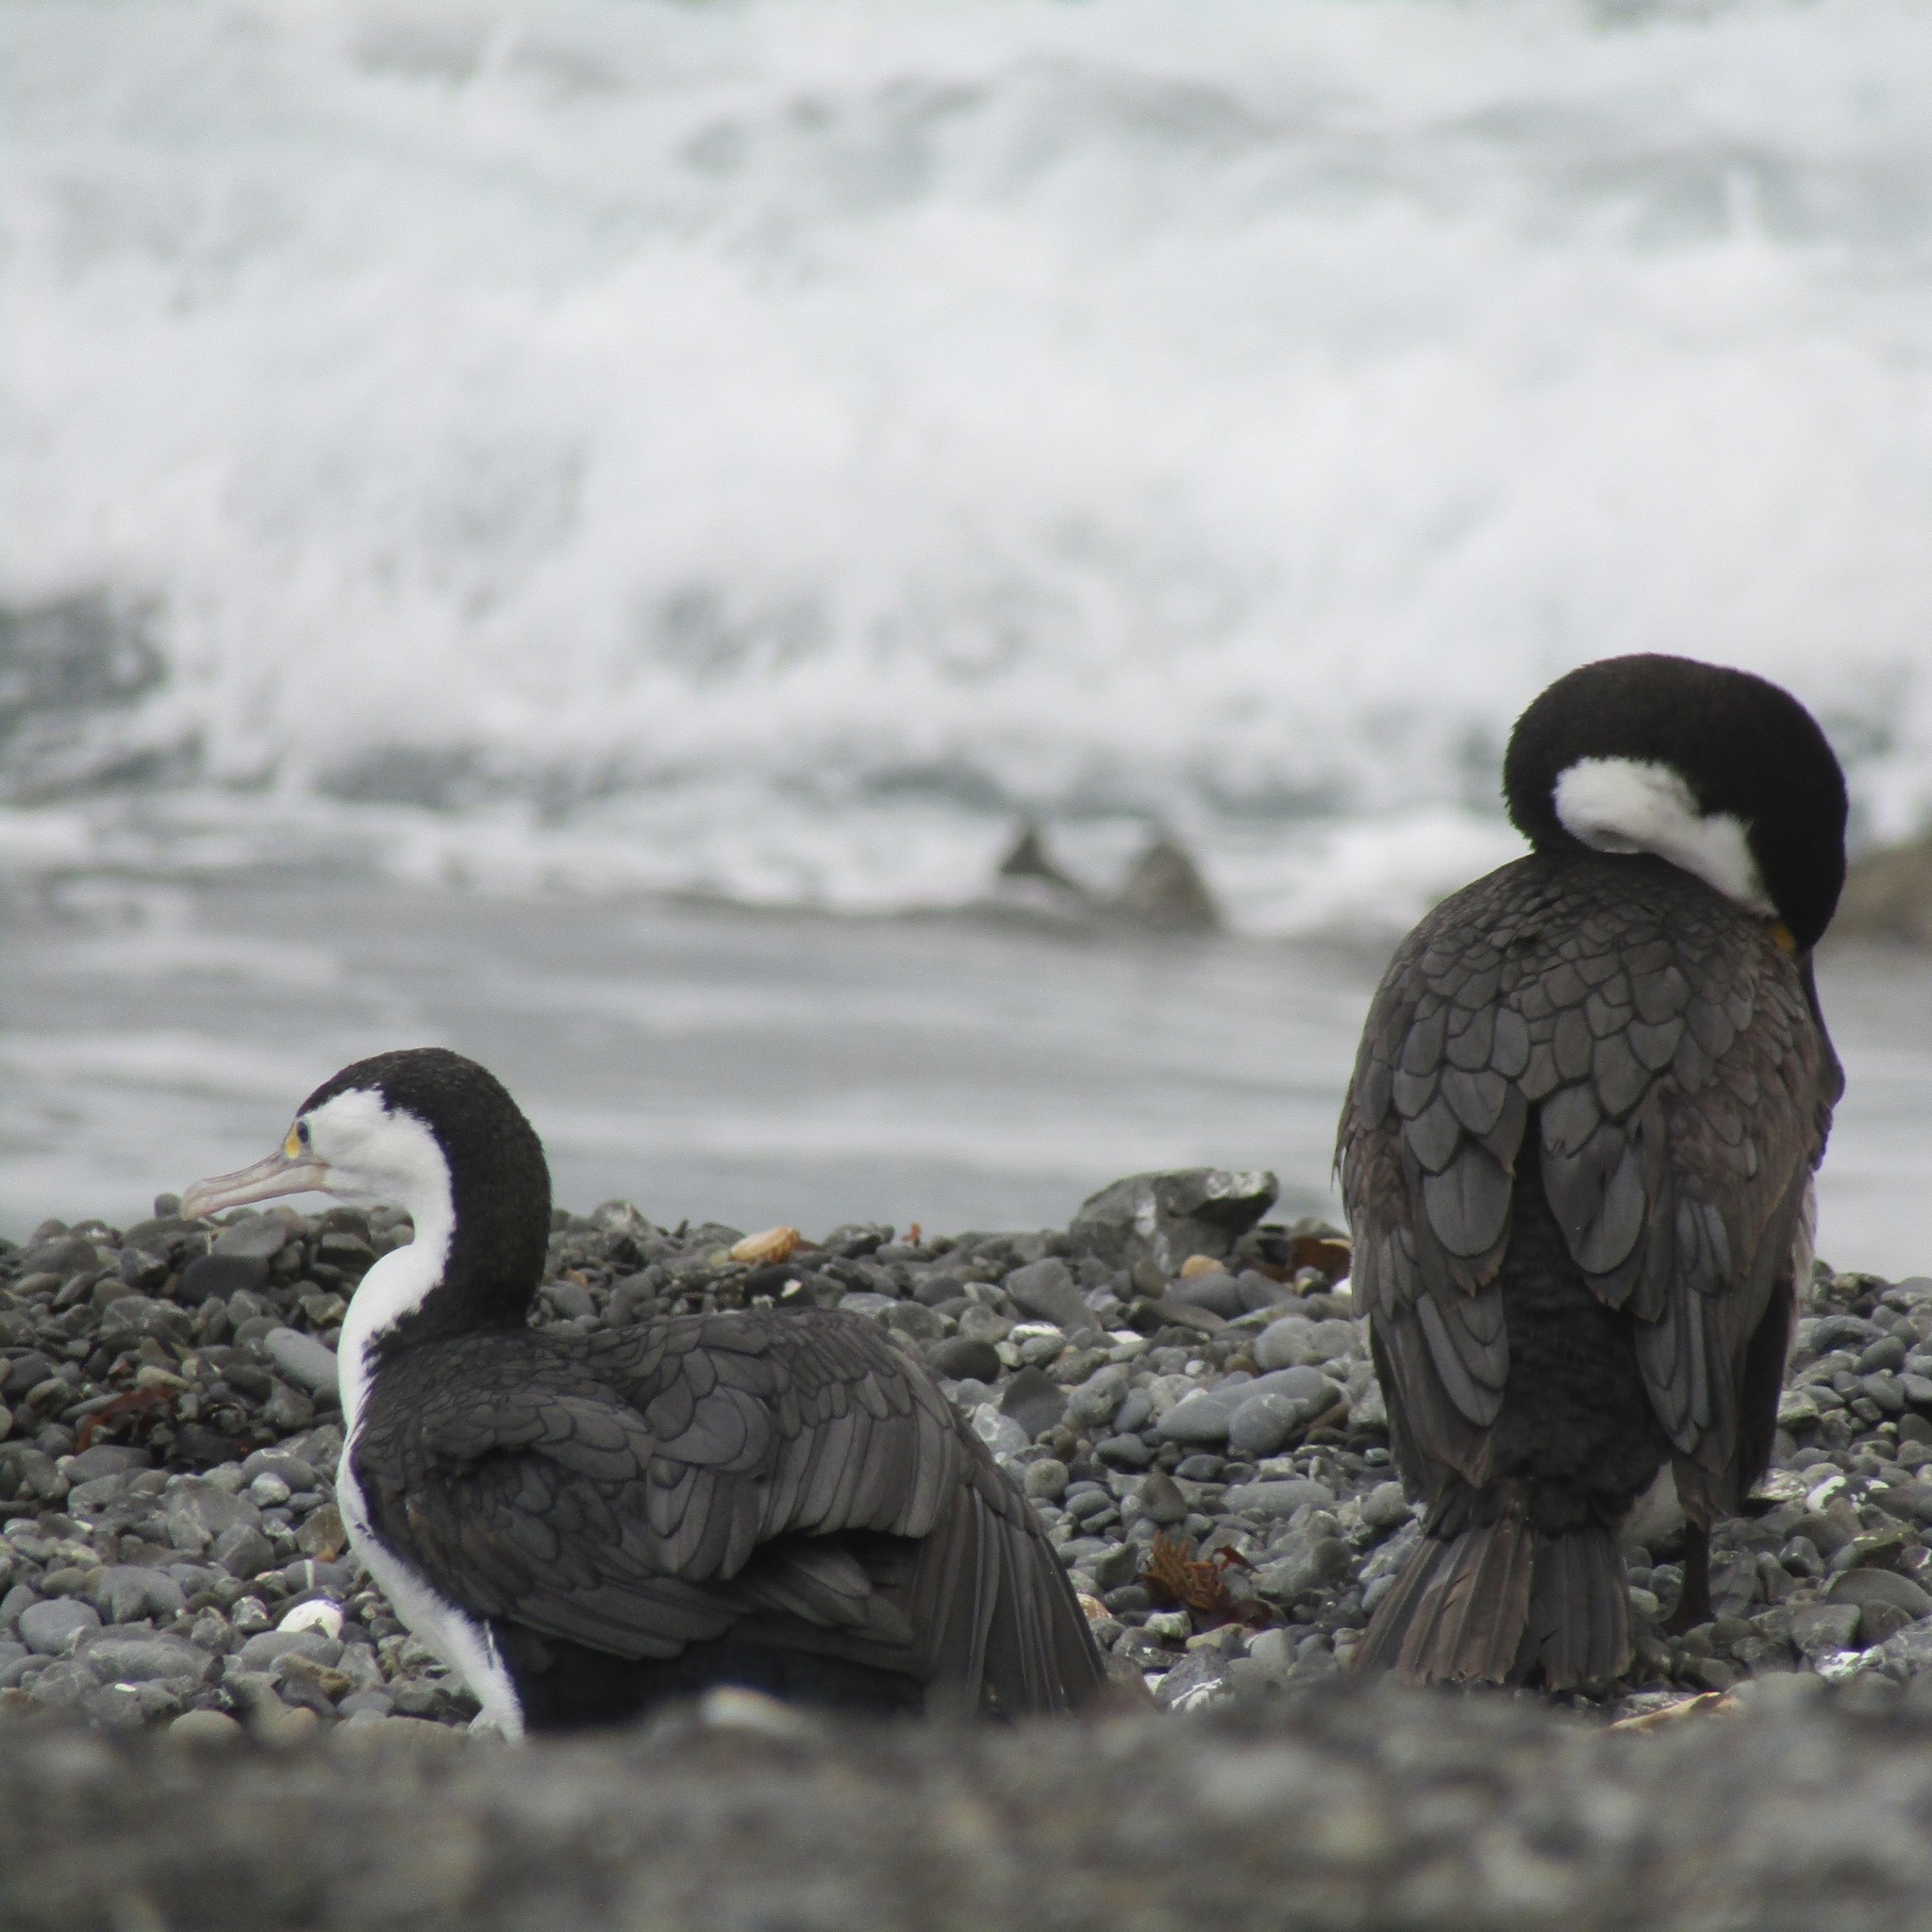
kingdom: Animalia
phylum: Chordata
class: Aves
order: Suliformes
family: Phalacrocoracidae
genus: Phalacrocorax
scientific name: Phalacrocorax varius
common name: Pied cormorant
